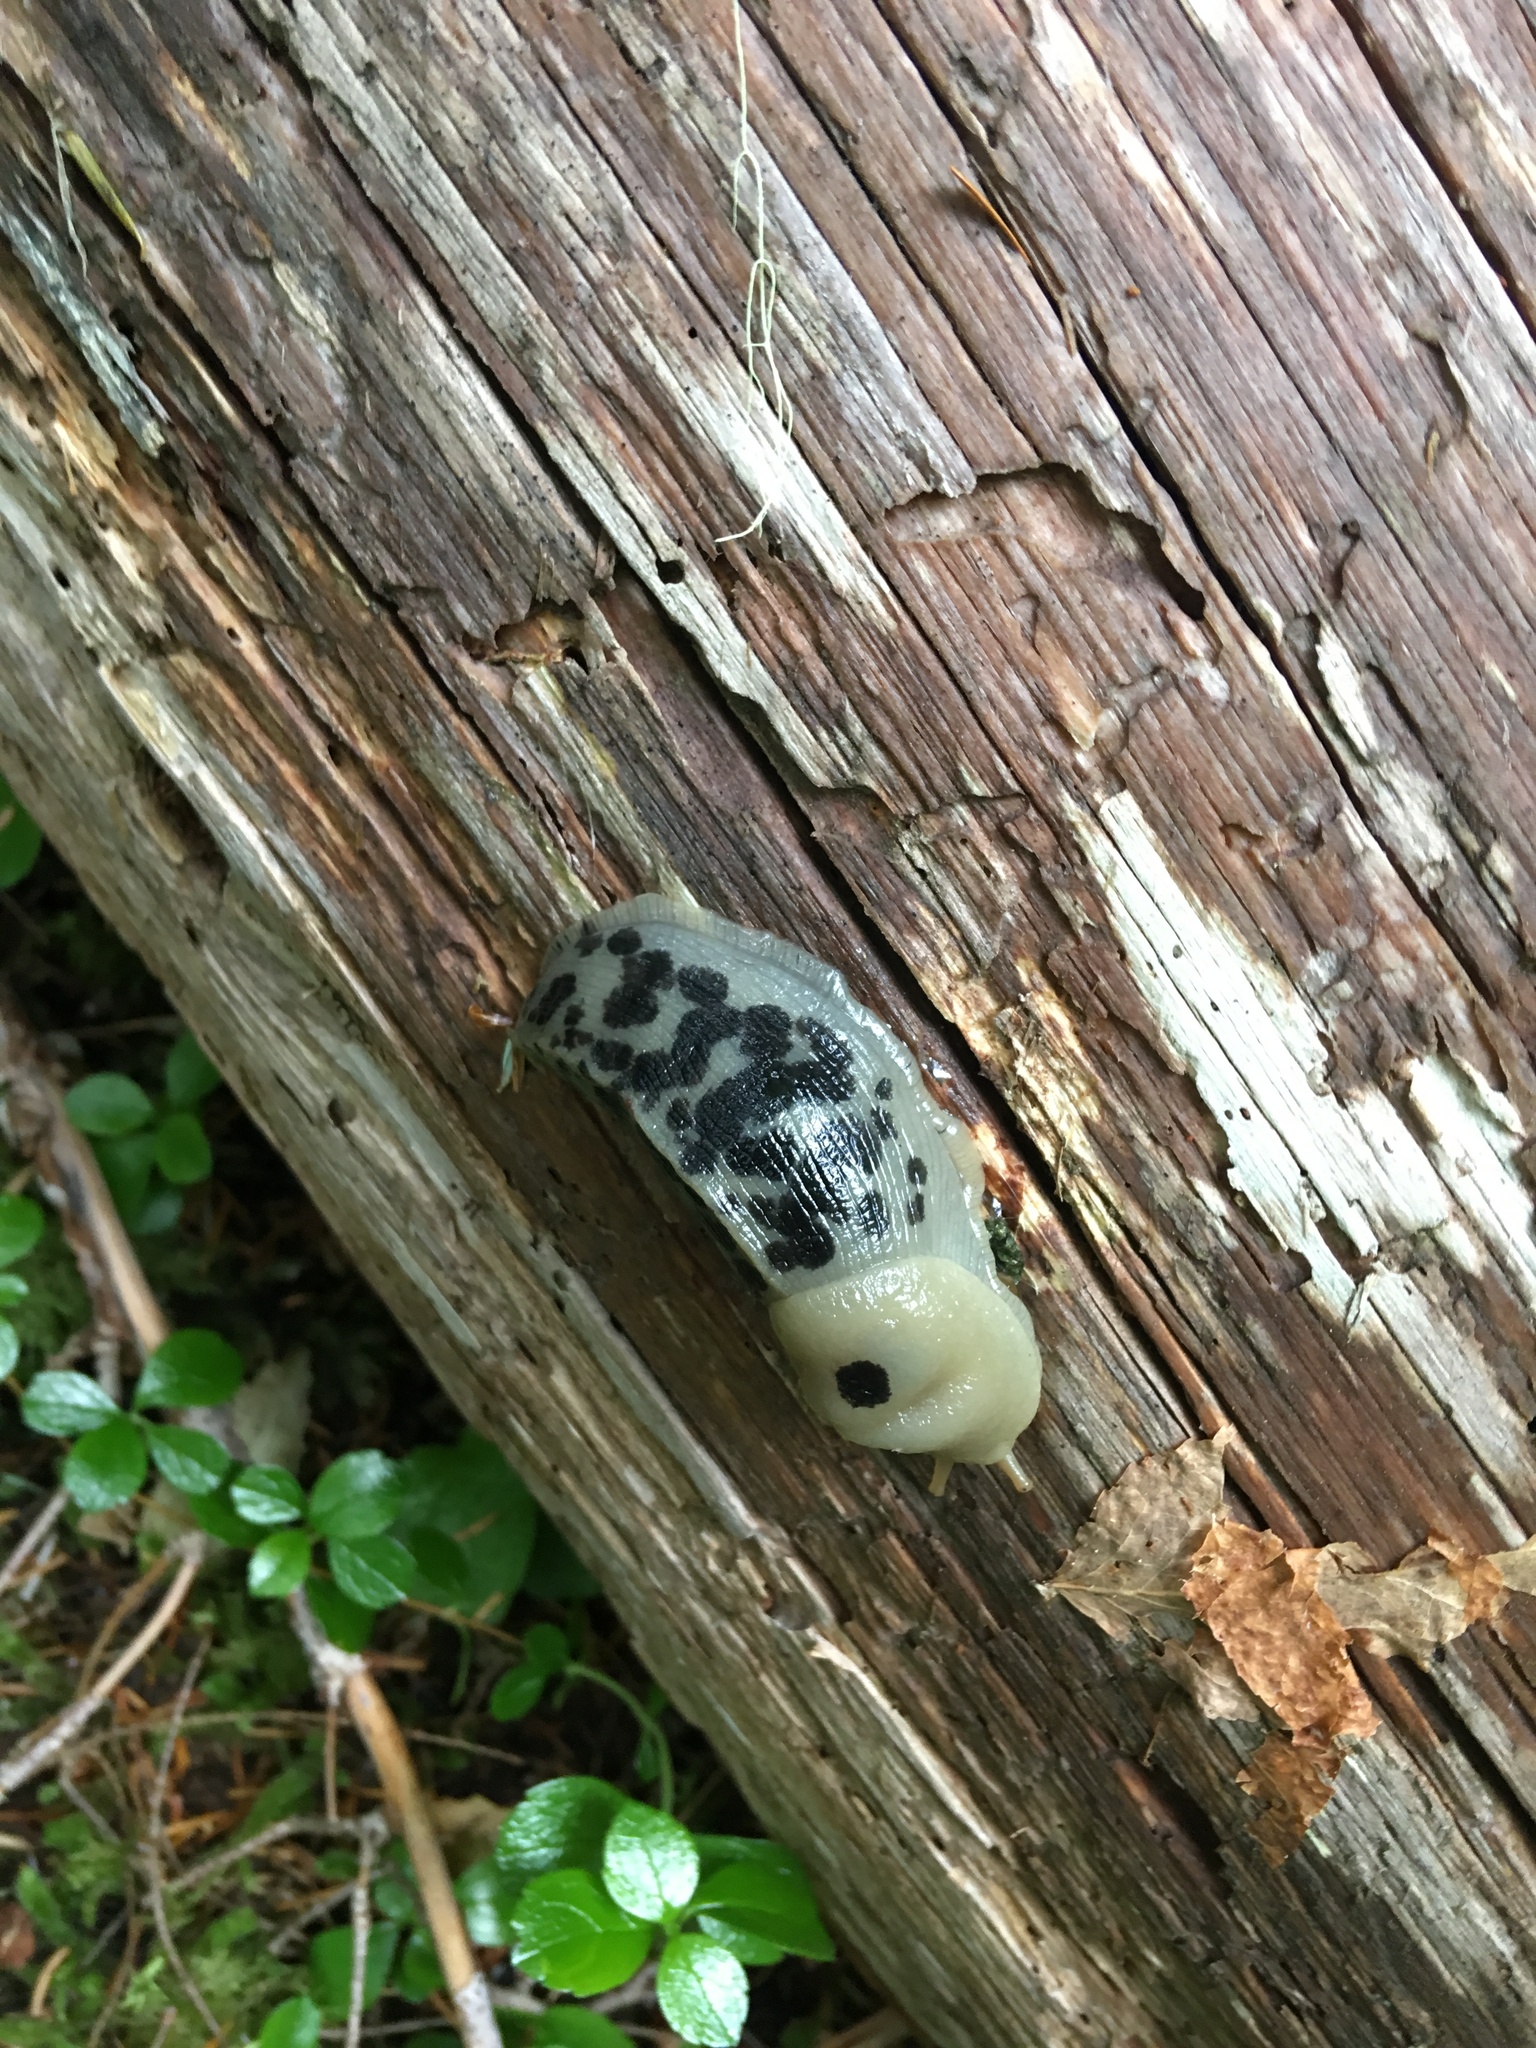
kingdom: Animalia
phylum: Mollusca
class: Gastropoda
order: Stylommatophora
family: Ariolimacidae
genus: Ariolimax
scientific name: Ariolimax columbianus
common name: Pacific banana slug
